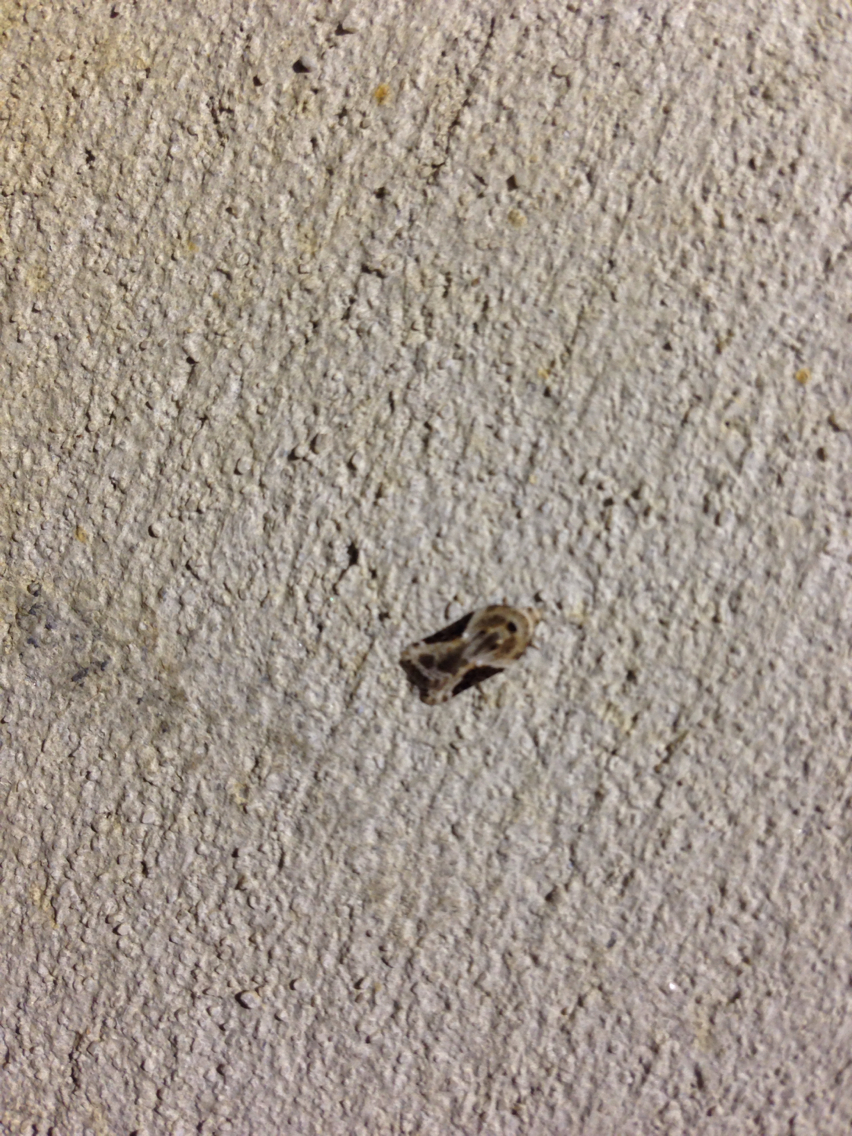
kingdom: Animalia
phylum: Arthropoda
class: Insecta
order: Lepidoptera
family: Tortricidae
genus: Acleris
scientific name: Acleris nivisellana
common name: Snowy-shouldered acleris moth
